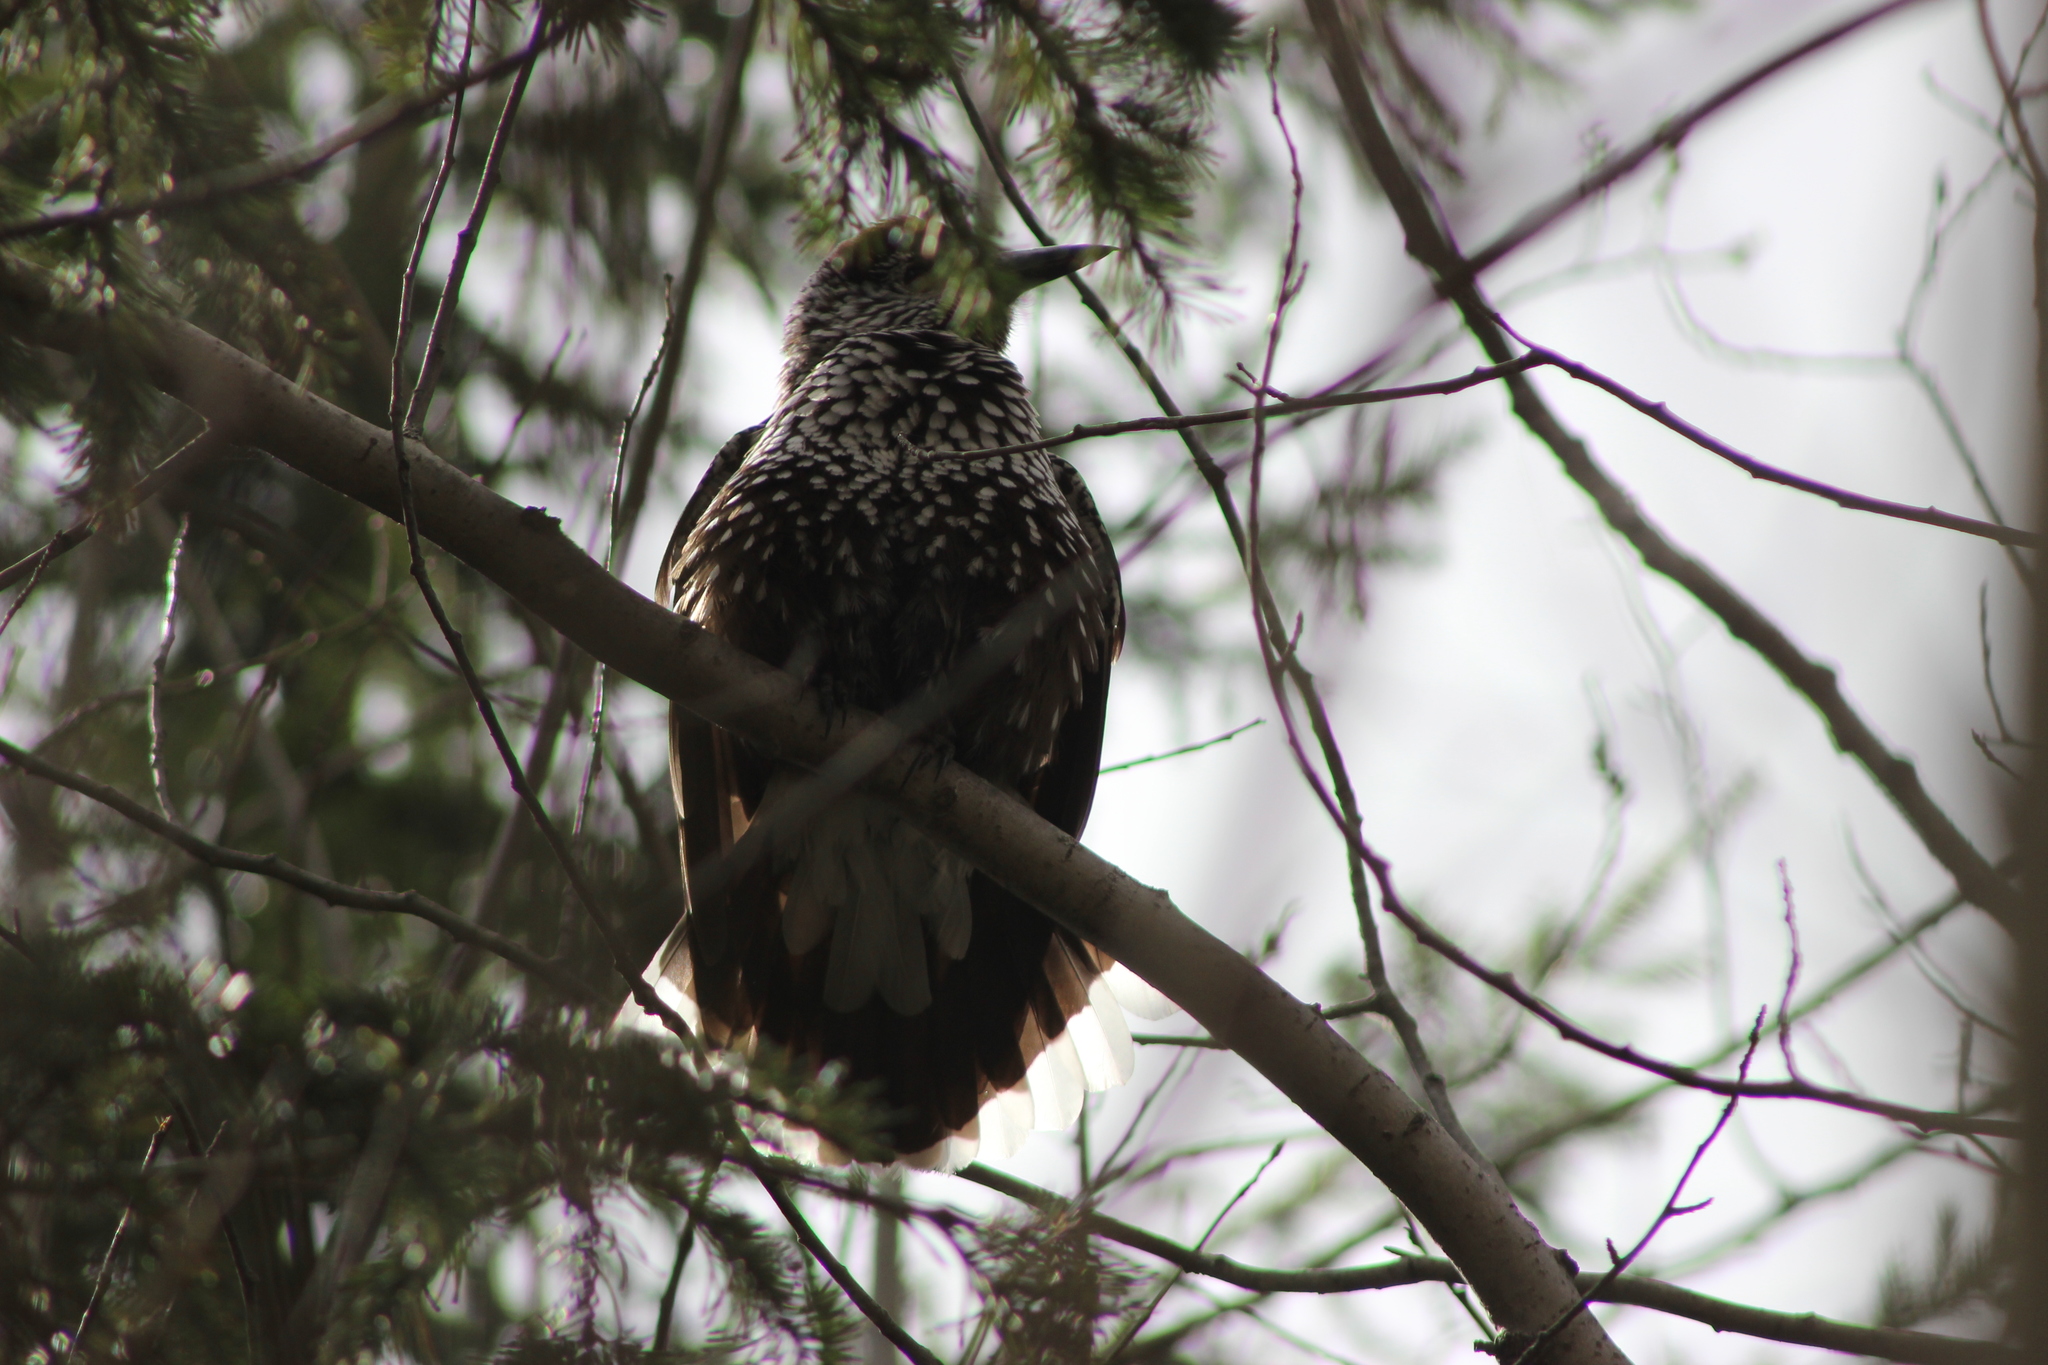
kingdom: Animalia
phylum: Chordata
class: Aves
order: Passeriformes
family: Corvidae
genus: Nucifraga
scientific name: Nucifraga caryocatactes
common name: Spotted nutcracker
